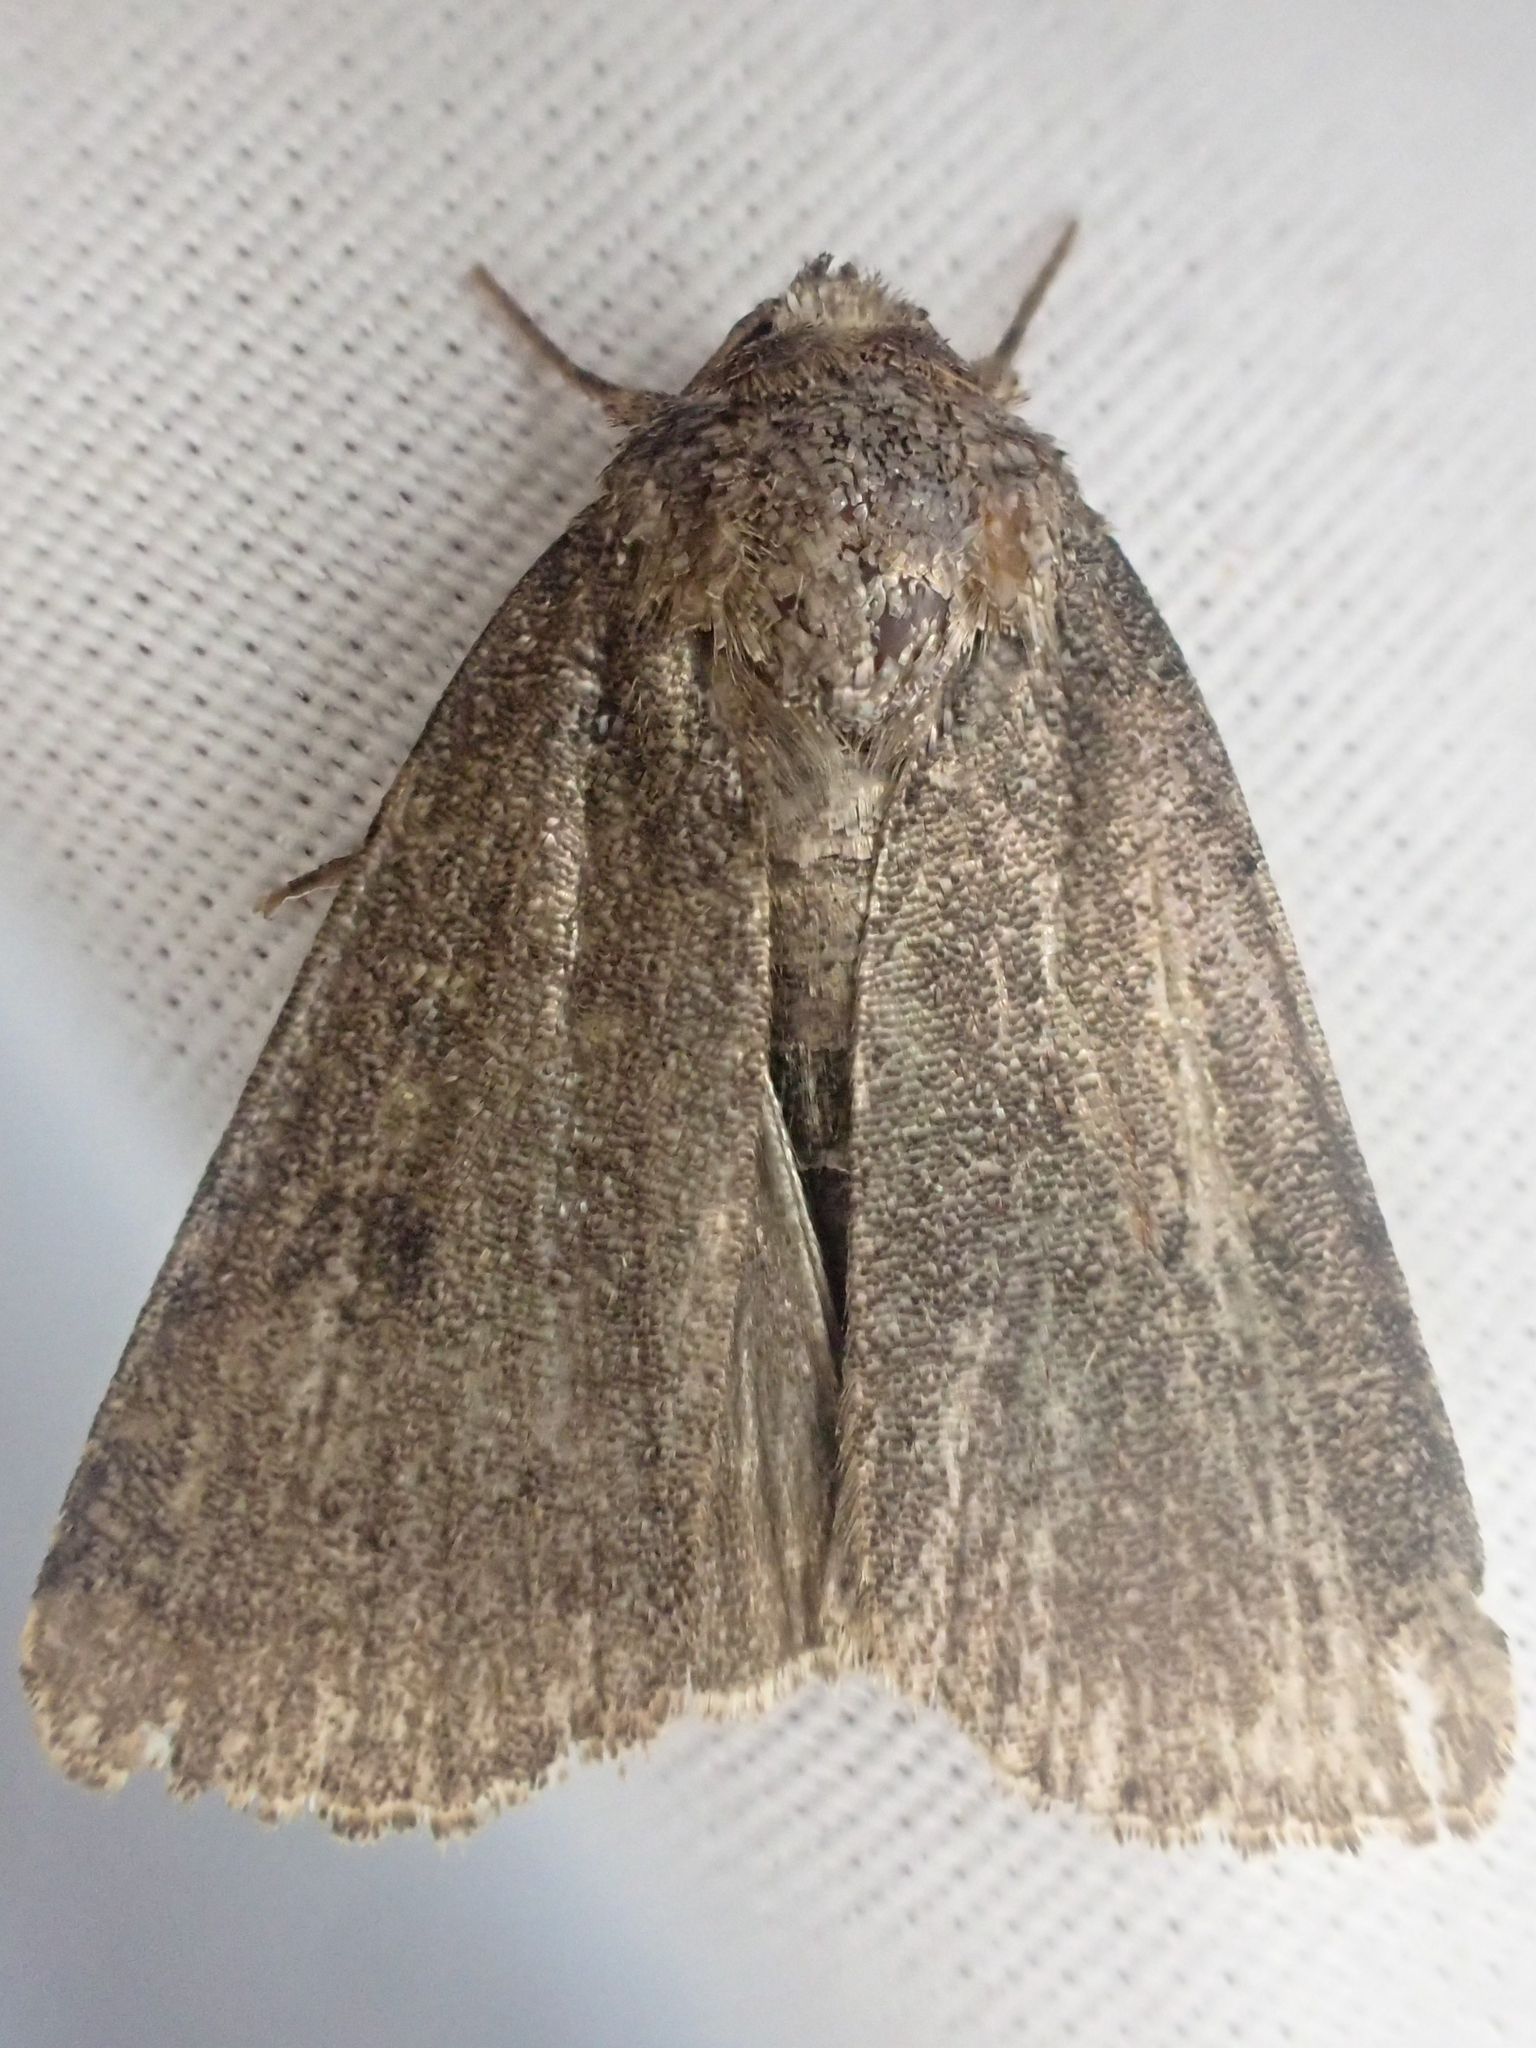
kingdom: Animalia
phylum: Arthropoda
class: Insecta
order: Lepidoptera
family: Noctuidae
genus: Amphipyra
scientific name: Amphipyra tragopoginis
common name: Mouse moth
